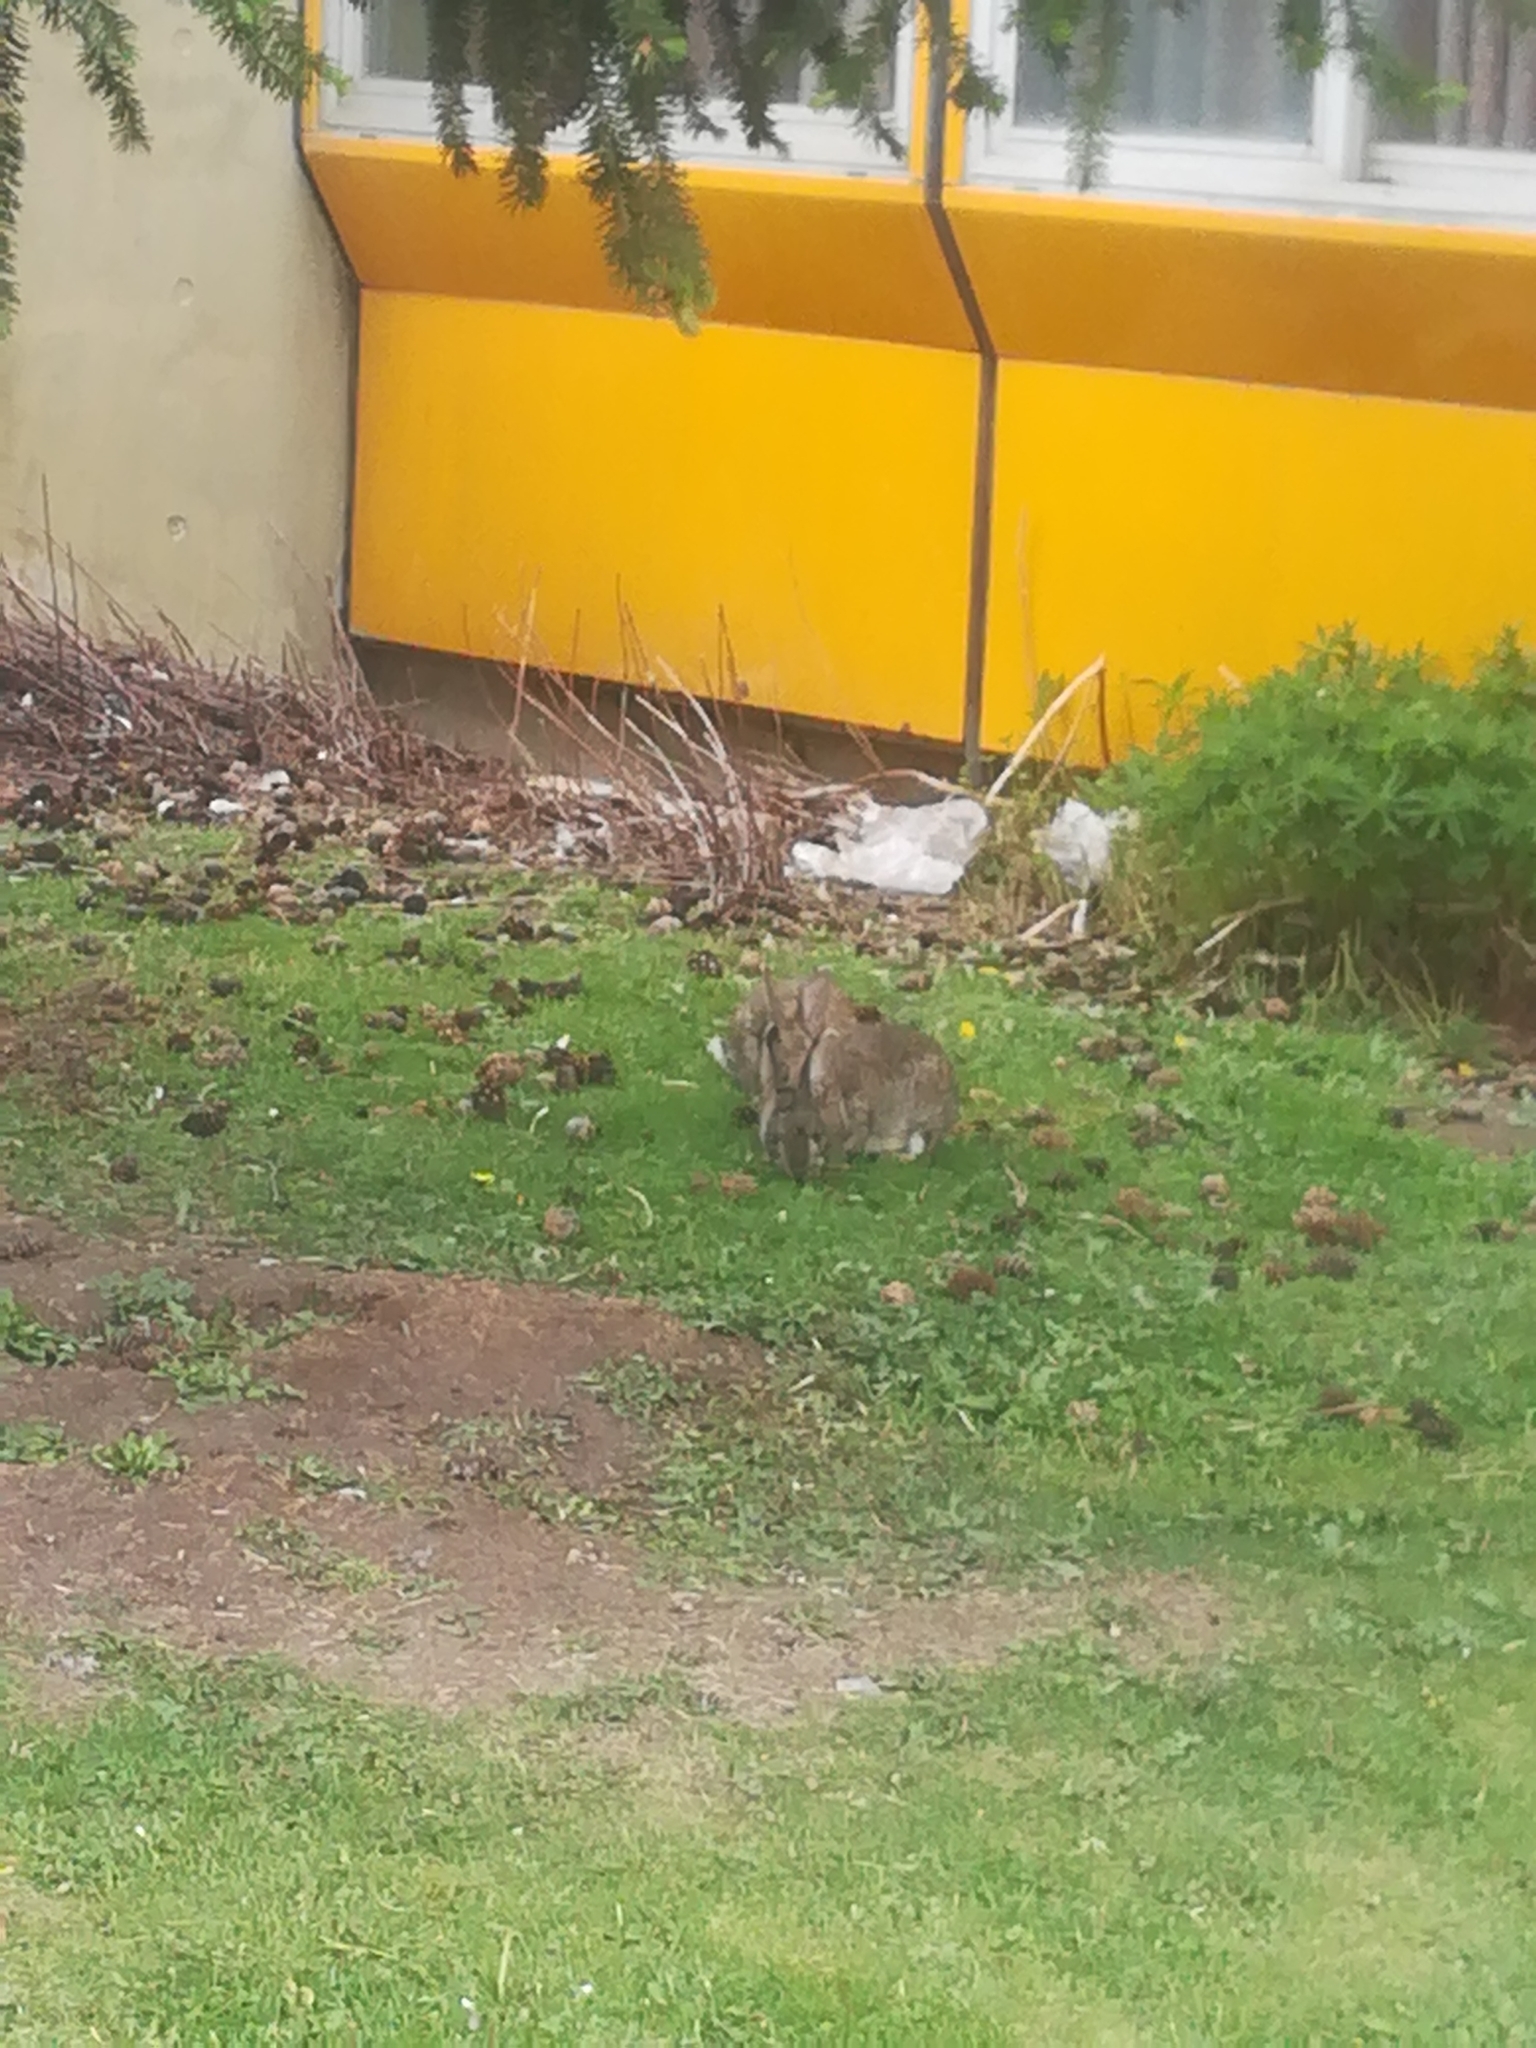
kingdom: Animalia
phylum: Chordata
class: Mammalia
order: Lagomorpha
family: Leporidae
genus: Oryctolagus
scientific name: Oryctolagus cuniculus
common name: European rabbit
